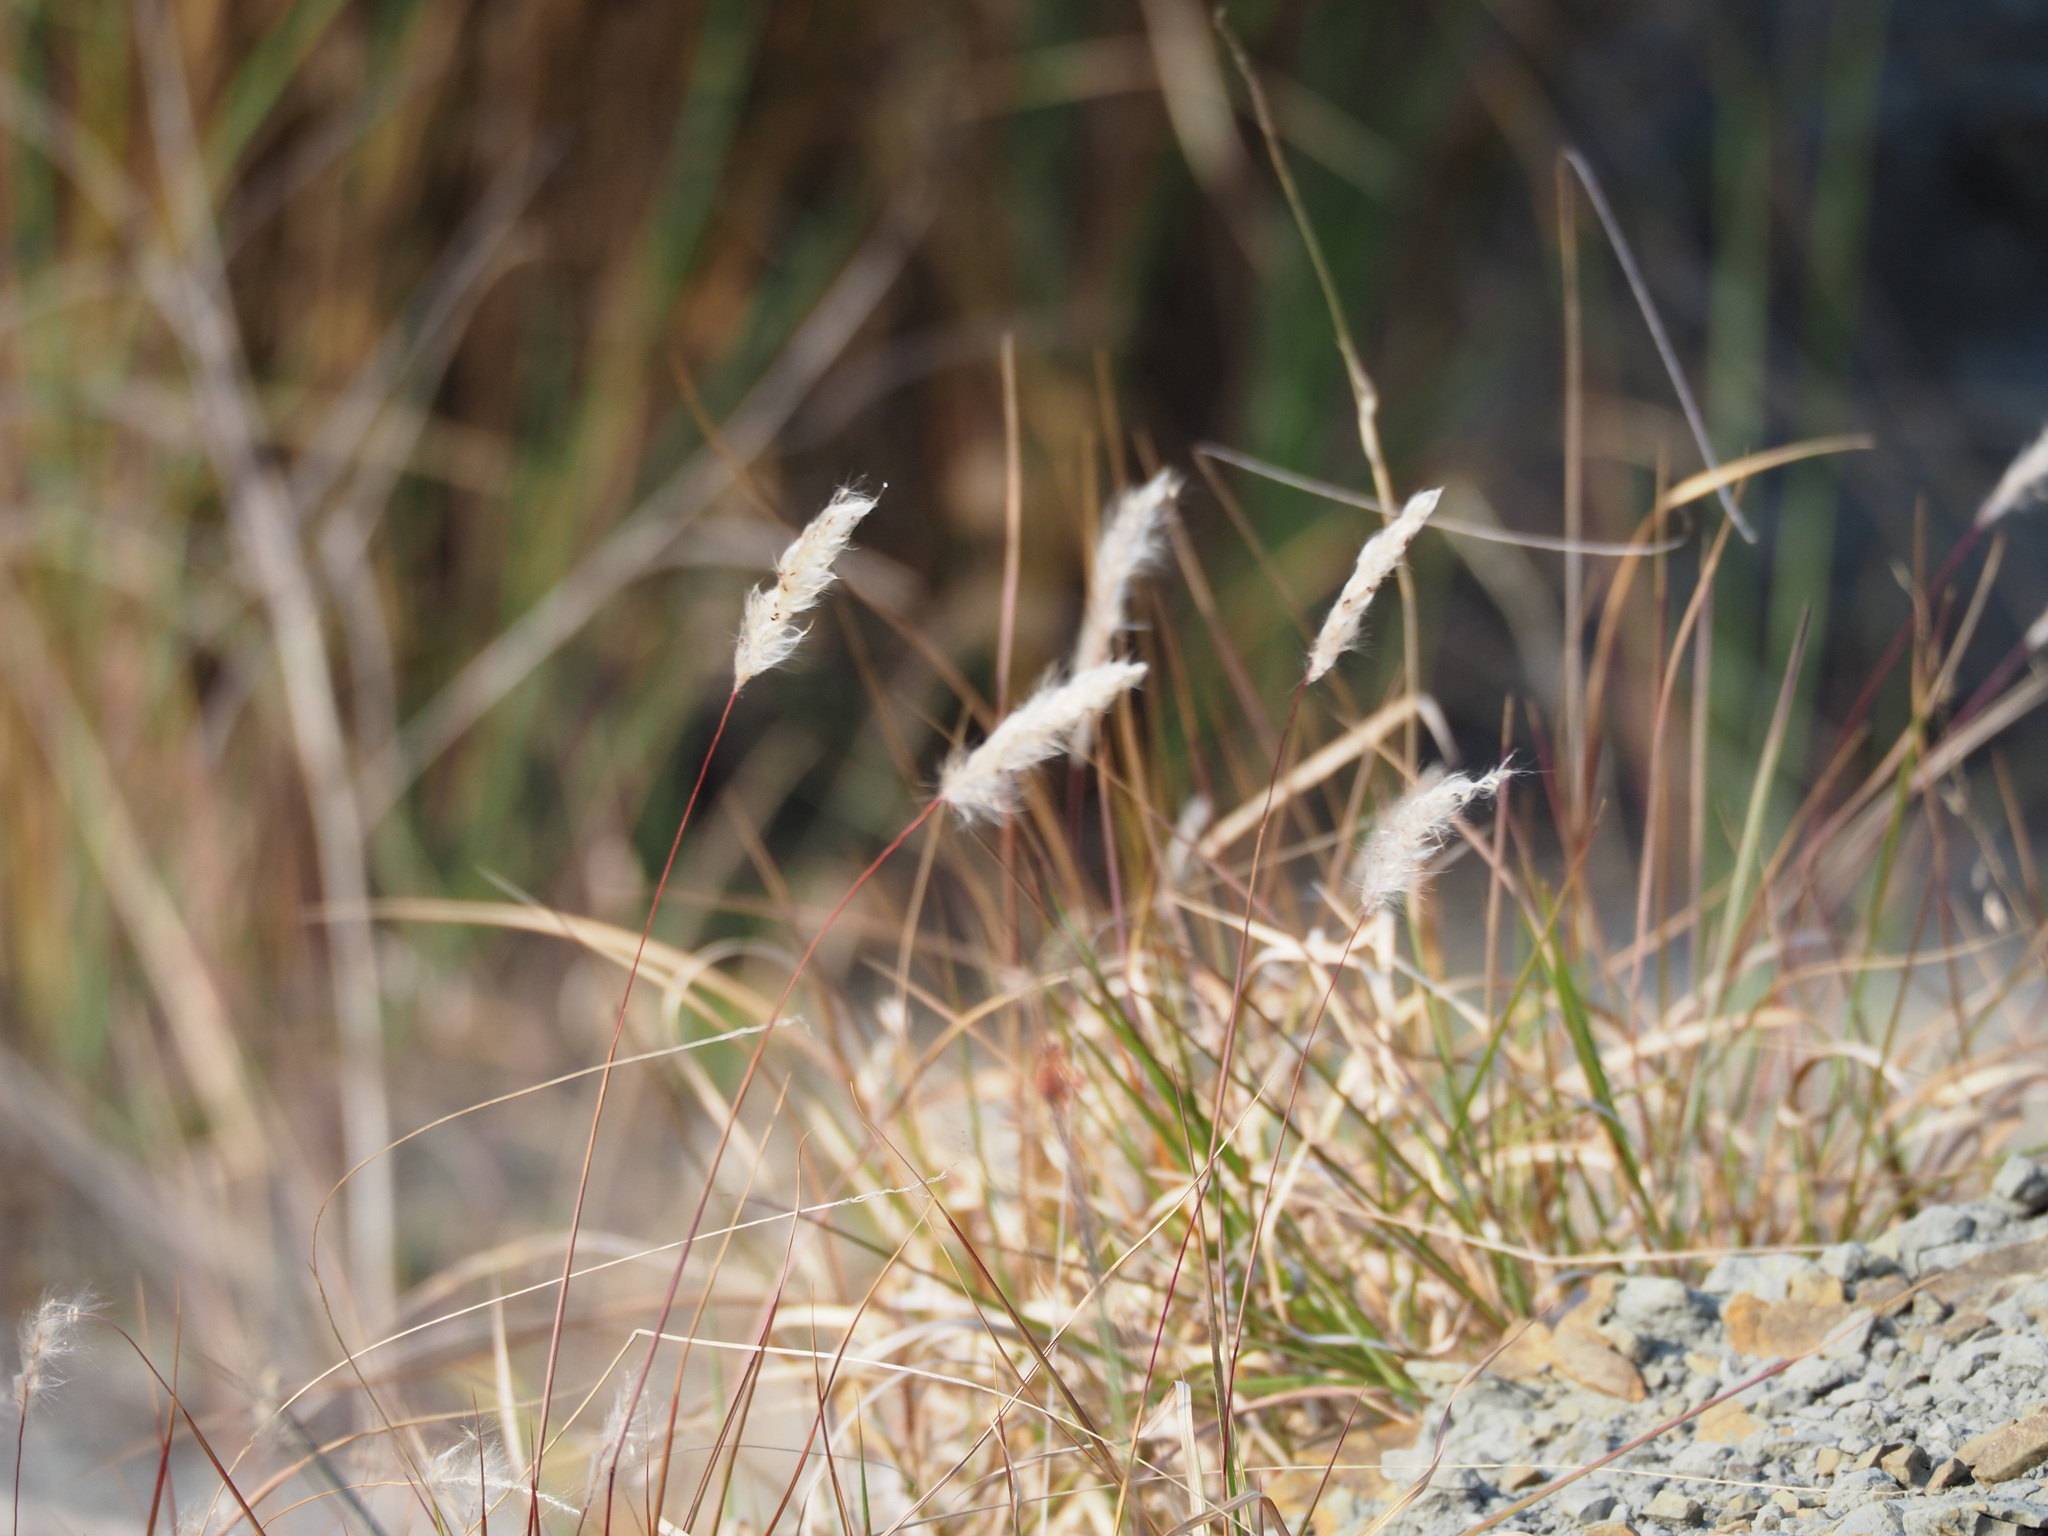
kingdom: Plantae
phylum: Tracheophyta
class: Liliopsida
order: Poales
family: Poaceae
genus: Imperata
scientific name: Imperata cylindrica
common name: Cogongrass
